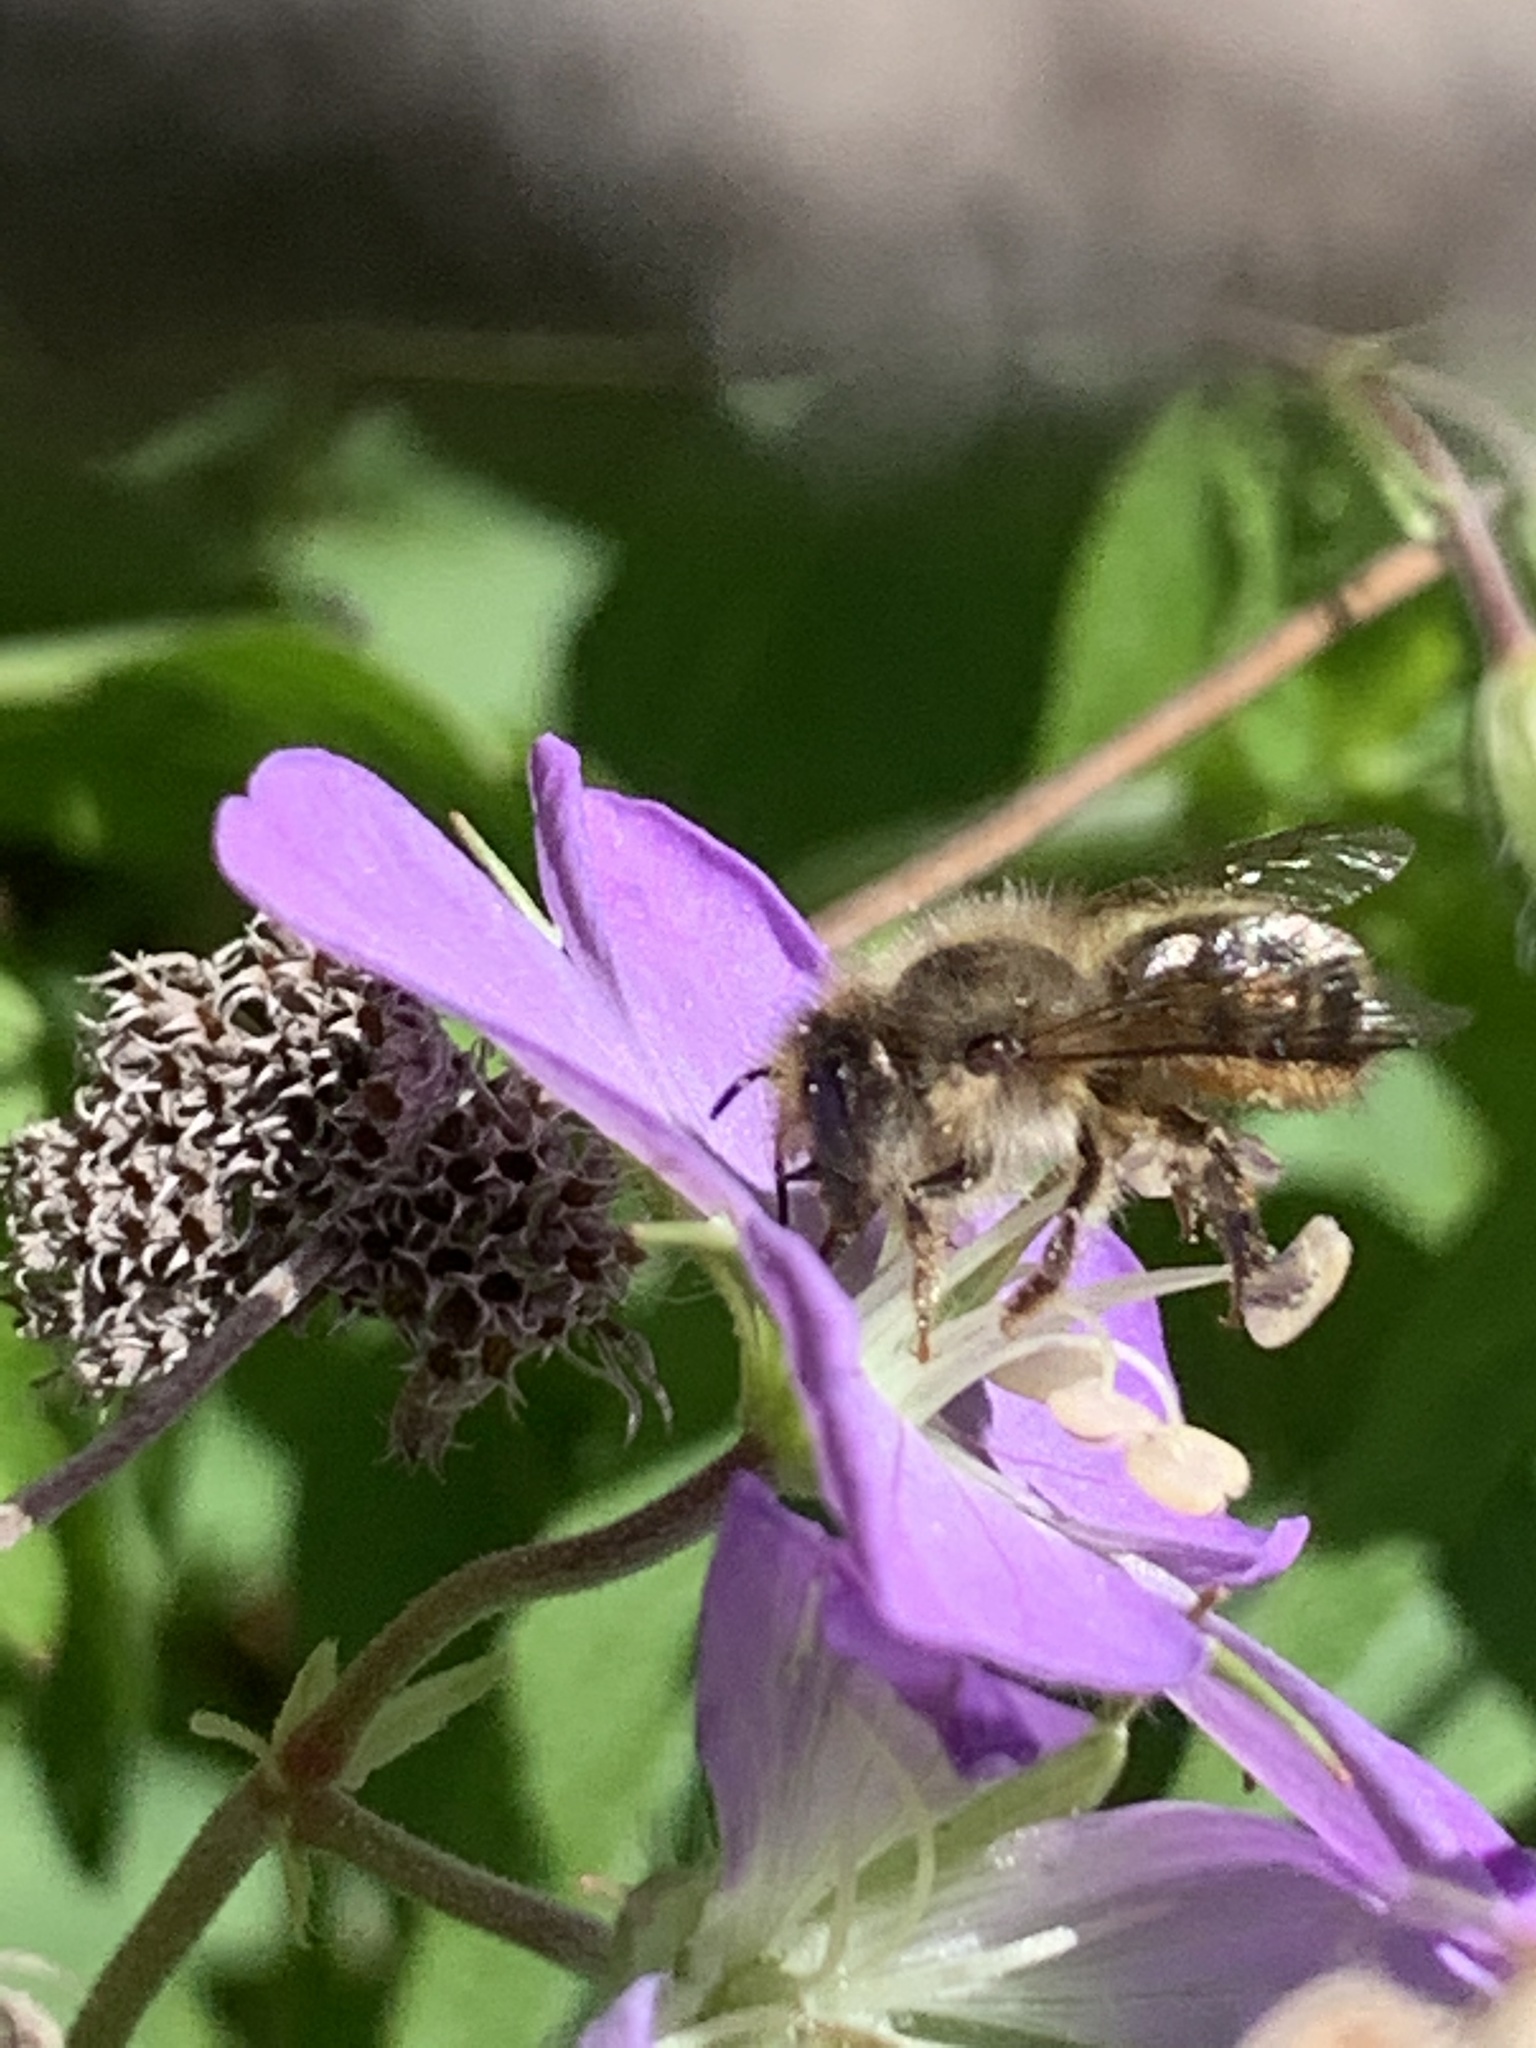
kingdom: Animalia
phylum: Arthropoda
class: Insecta
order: Hymenoptera
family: Megachilidae
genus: Osmia
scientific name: Osmia cornifrons
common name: Horn-faced bee
